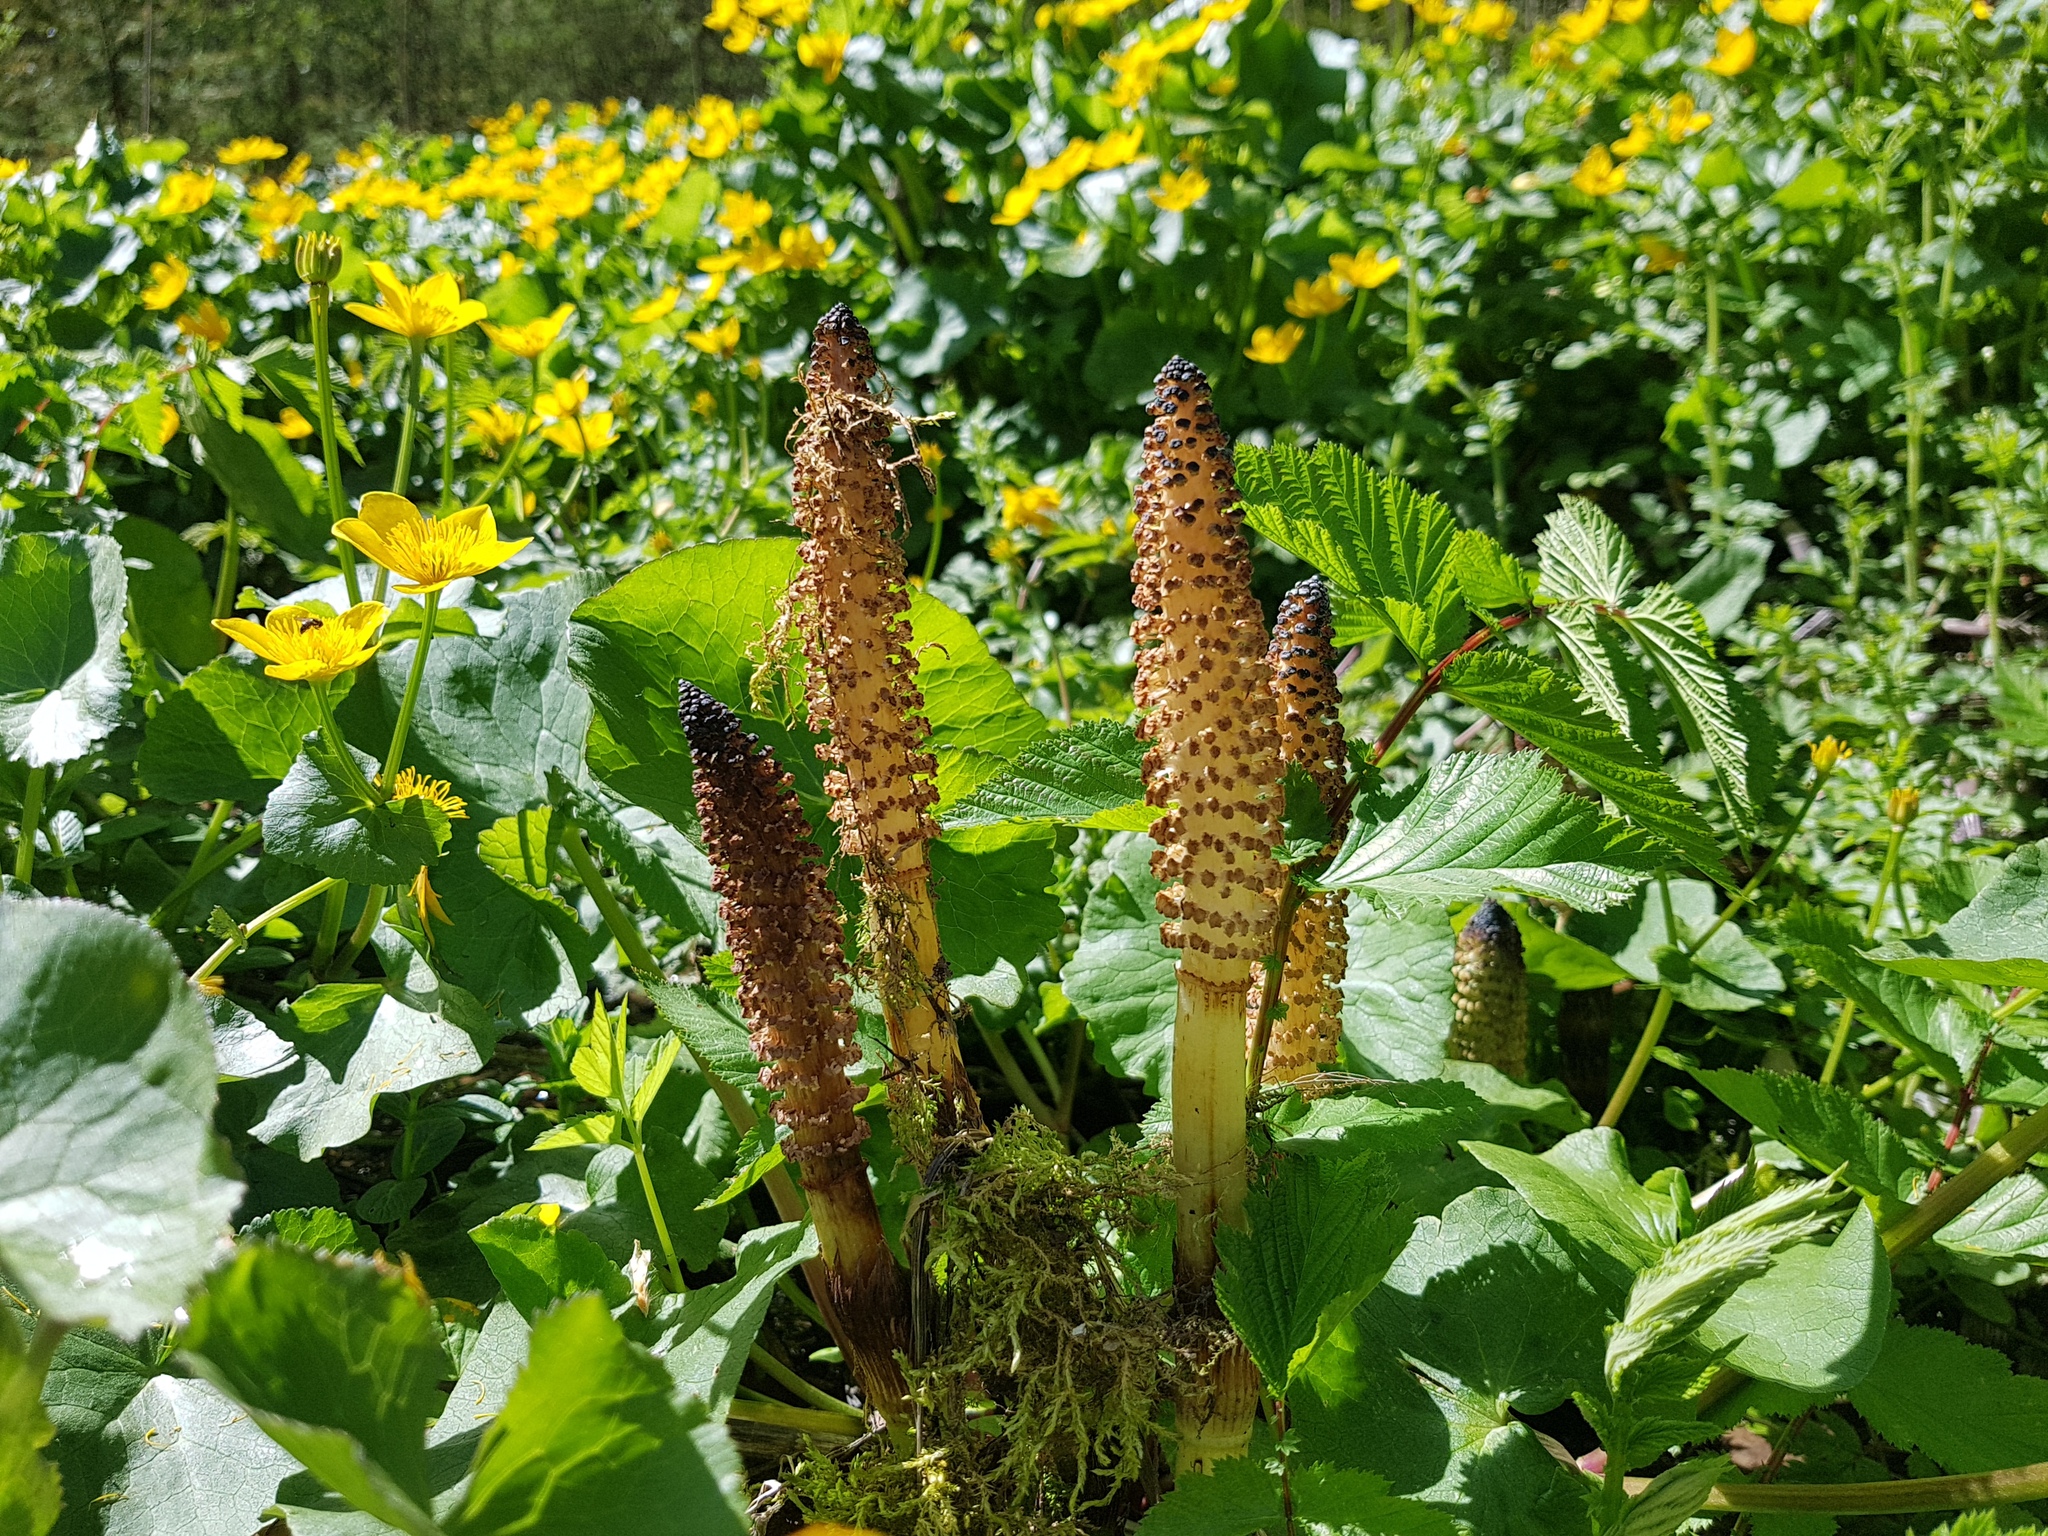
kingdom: Plantae
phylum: Tracheophyta
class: Polypodiopsida
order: Equisetales
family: Equisetaceae
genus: Equisetum
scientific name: Equisetum telmateia
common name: Great horsetail
